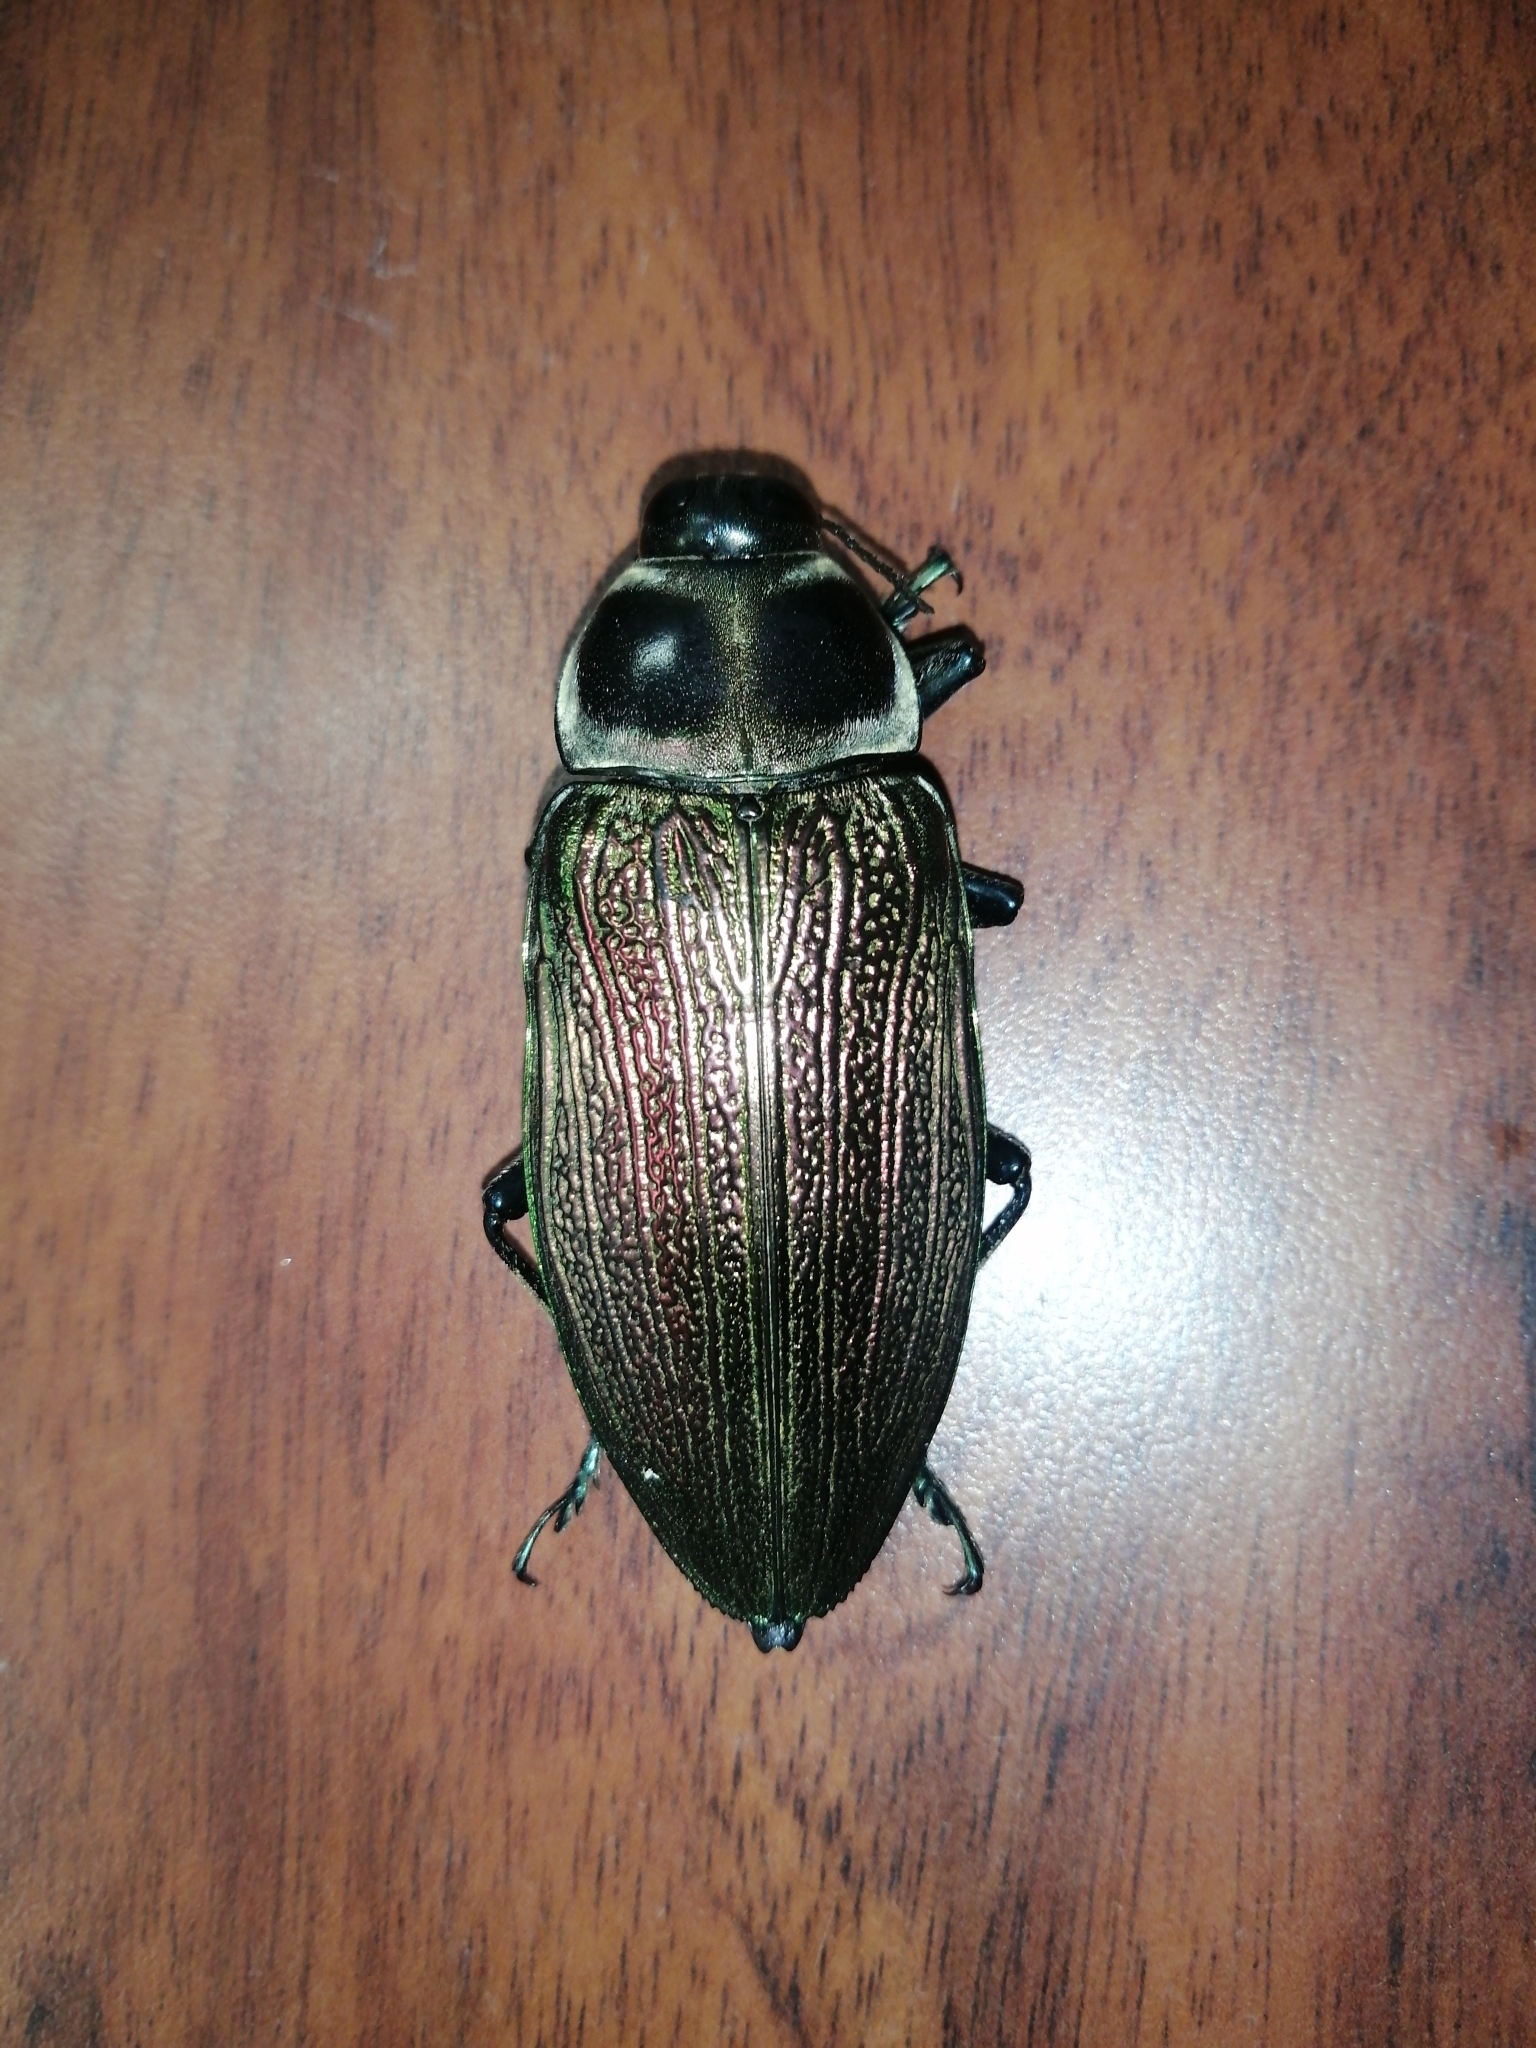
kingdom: Animalia
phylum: Arthropoda
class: Insecta
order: Coleoptera
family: Buprestidae
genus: Euchroma
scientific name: Euchroma giganteum
